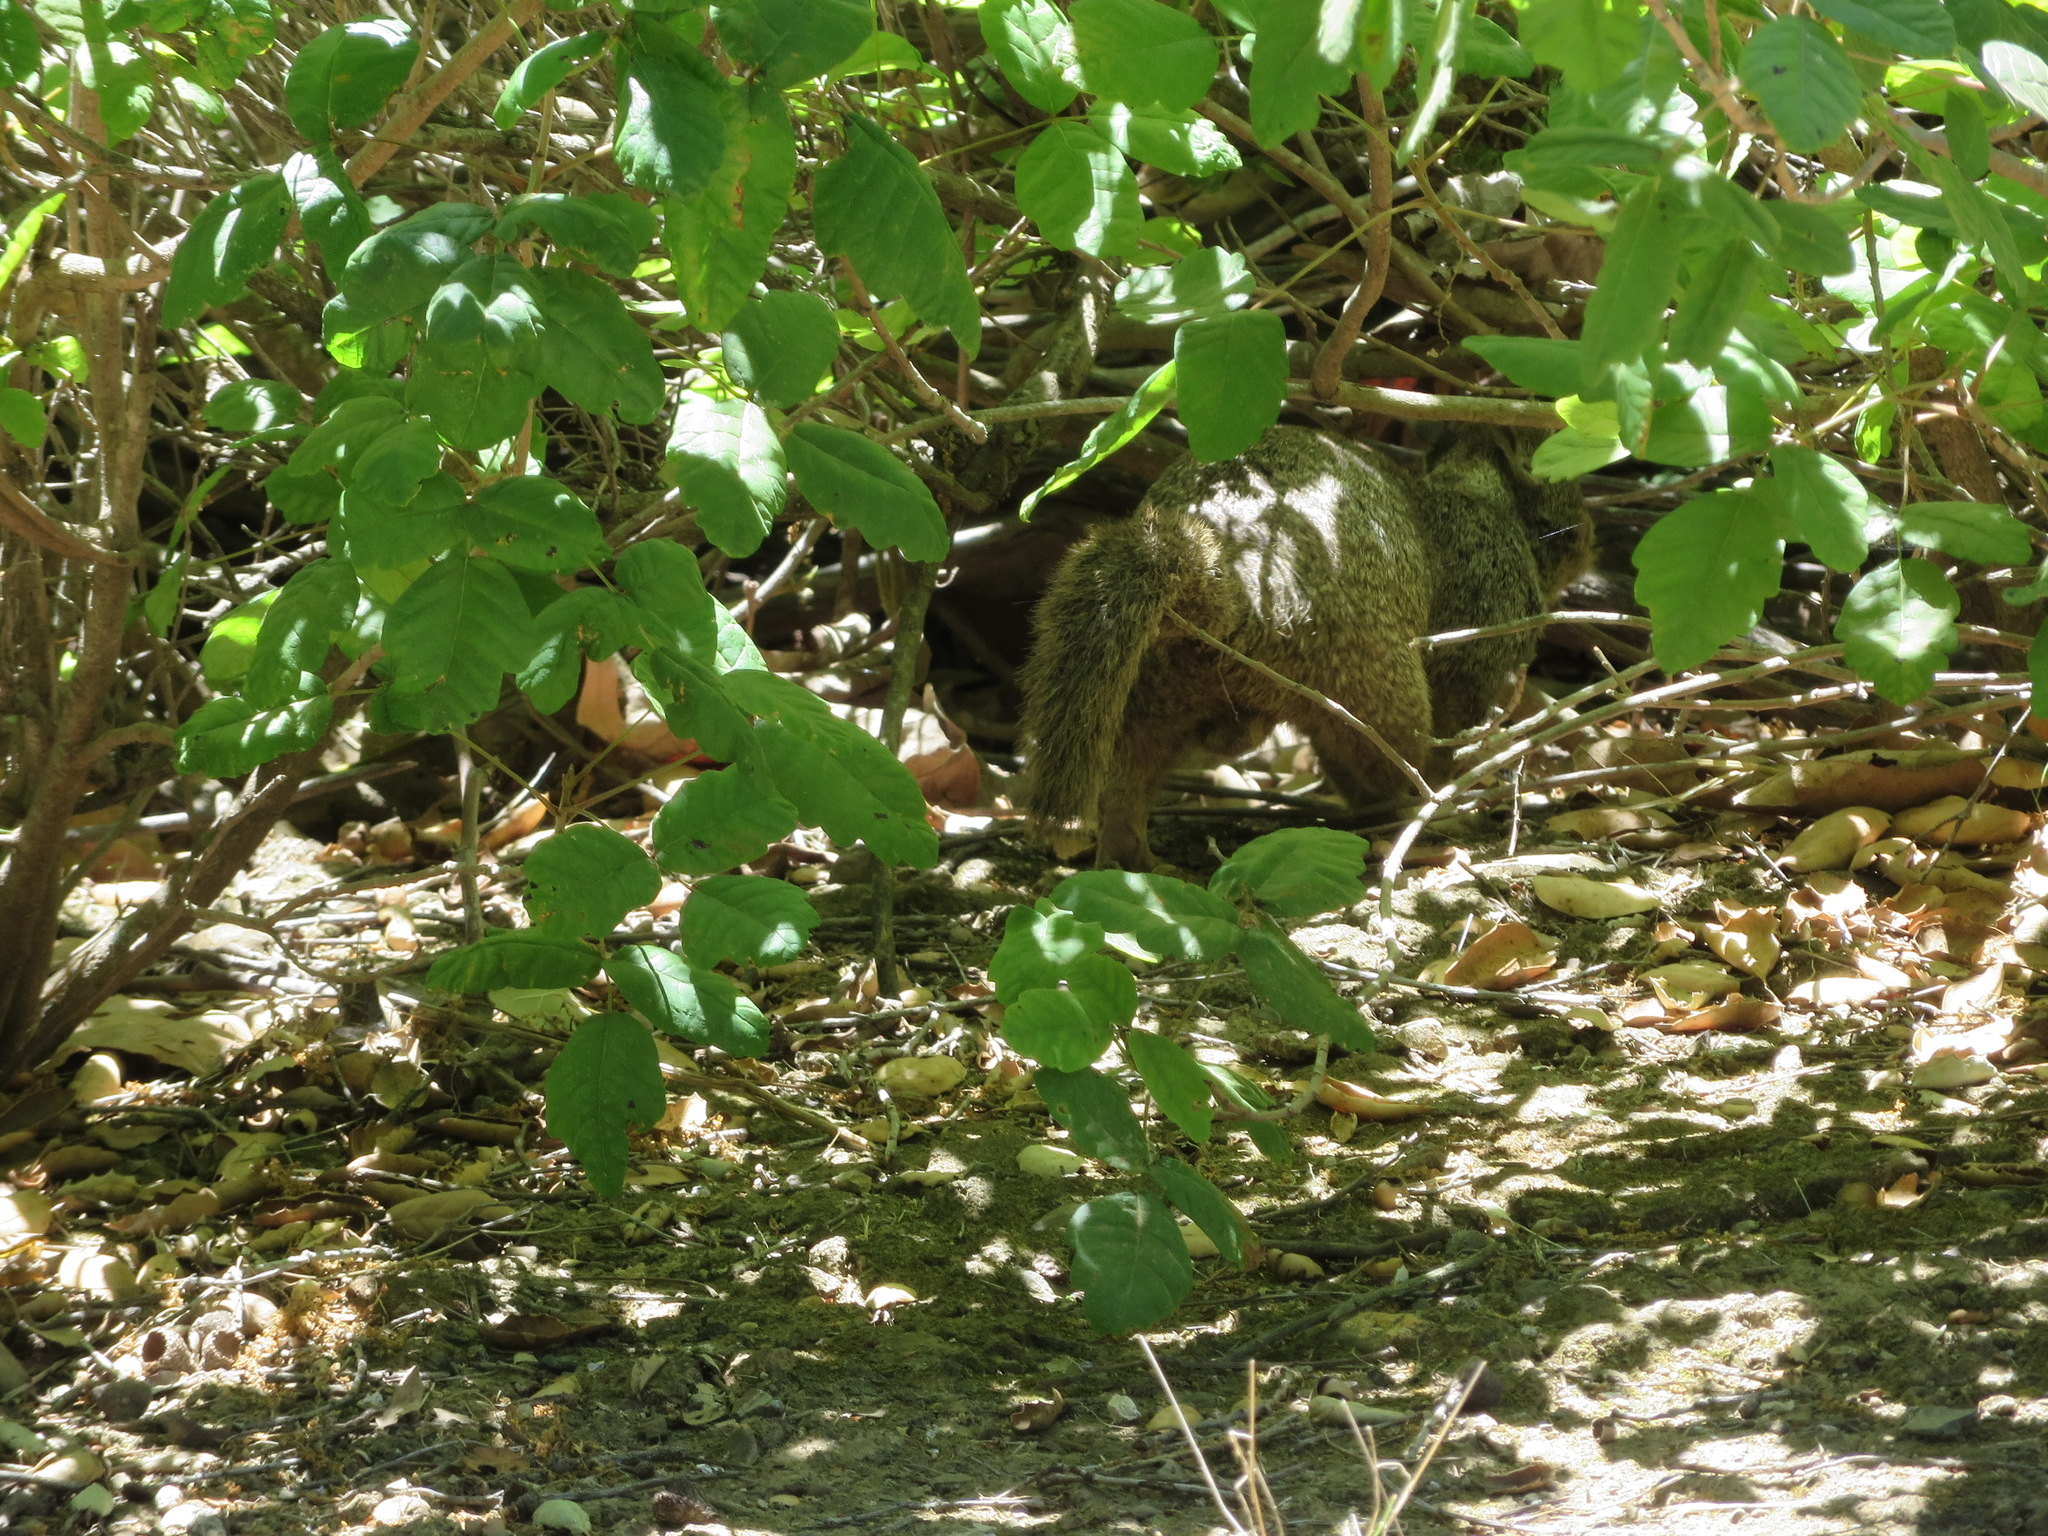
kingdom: Animalia
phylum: Chordata
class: Mammalia
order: Rodentia
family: Sciuridae
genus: Otospermophilus
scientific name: Otospermophilus beecheyi
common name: California ground squirrel
